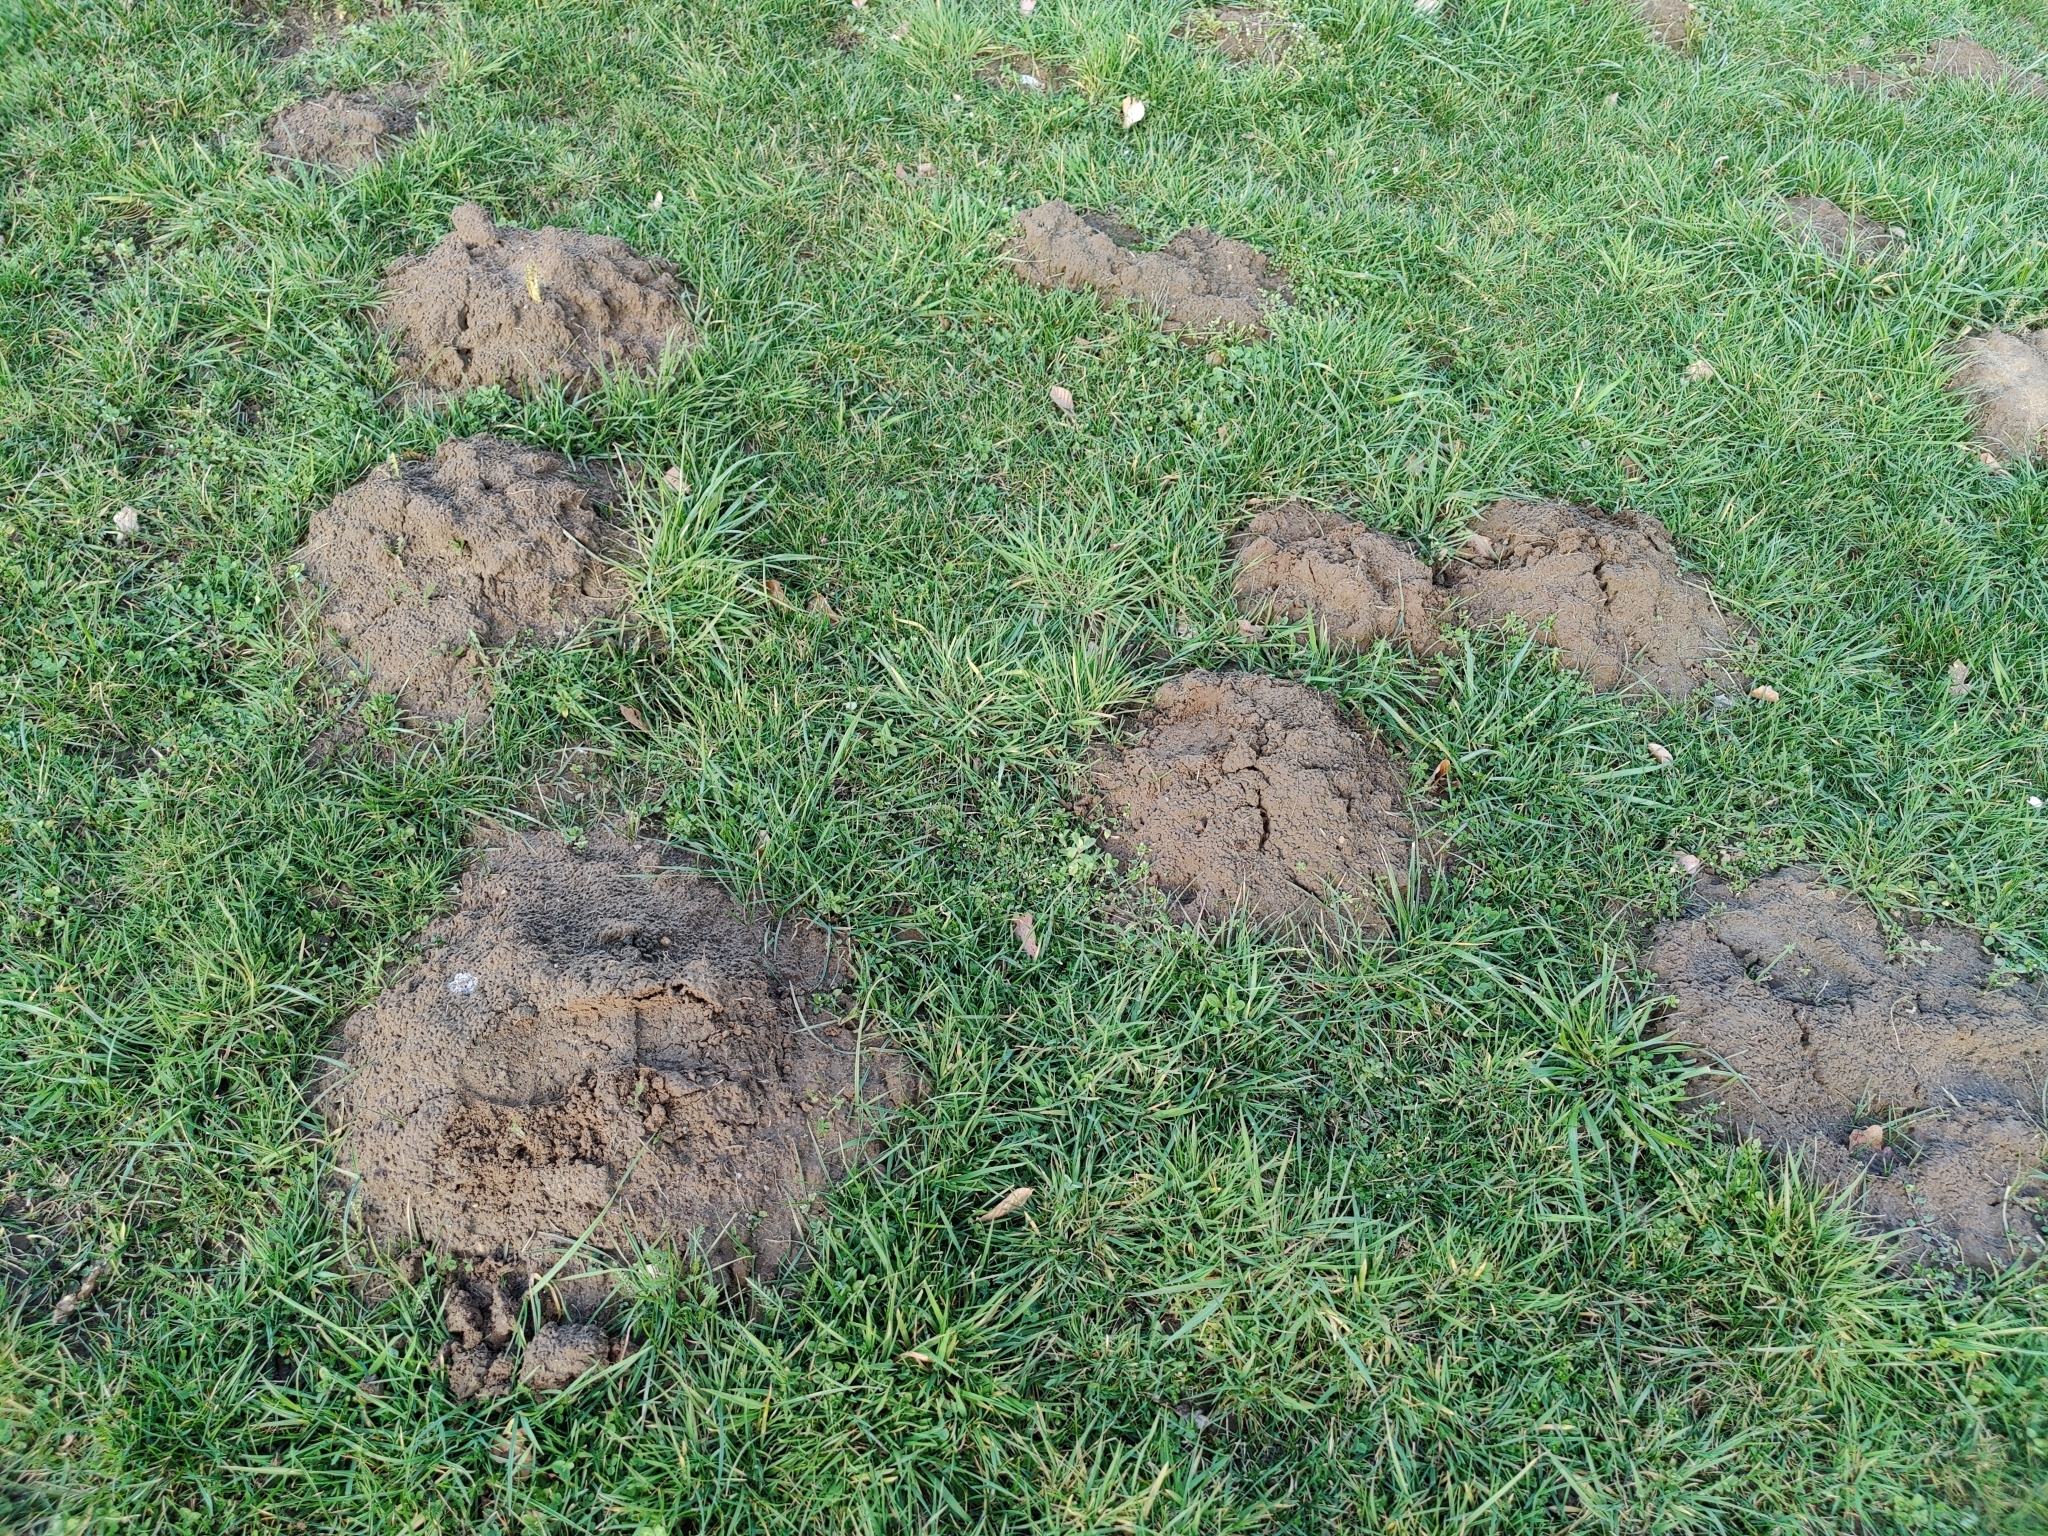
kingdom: Animalia
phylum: Chordata
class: Mammalia
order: Soricomorpha
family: Talpidae
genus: Talpa
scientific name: Talpa europaea
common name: European mole
